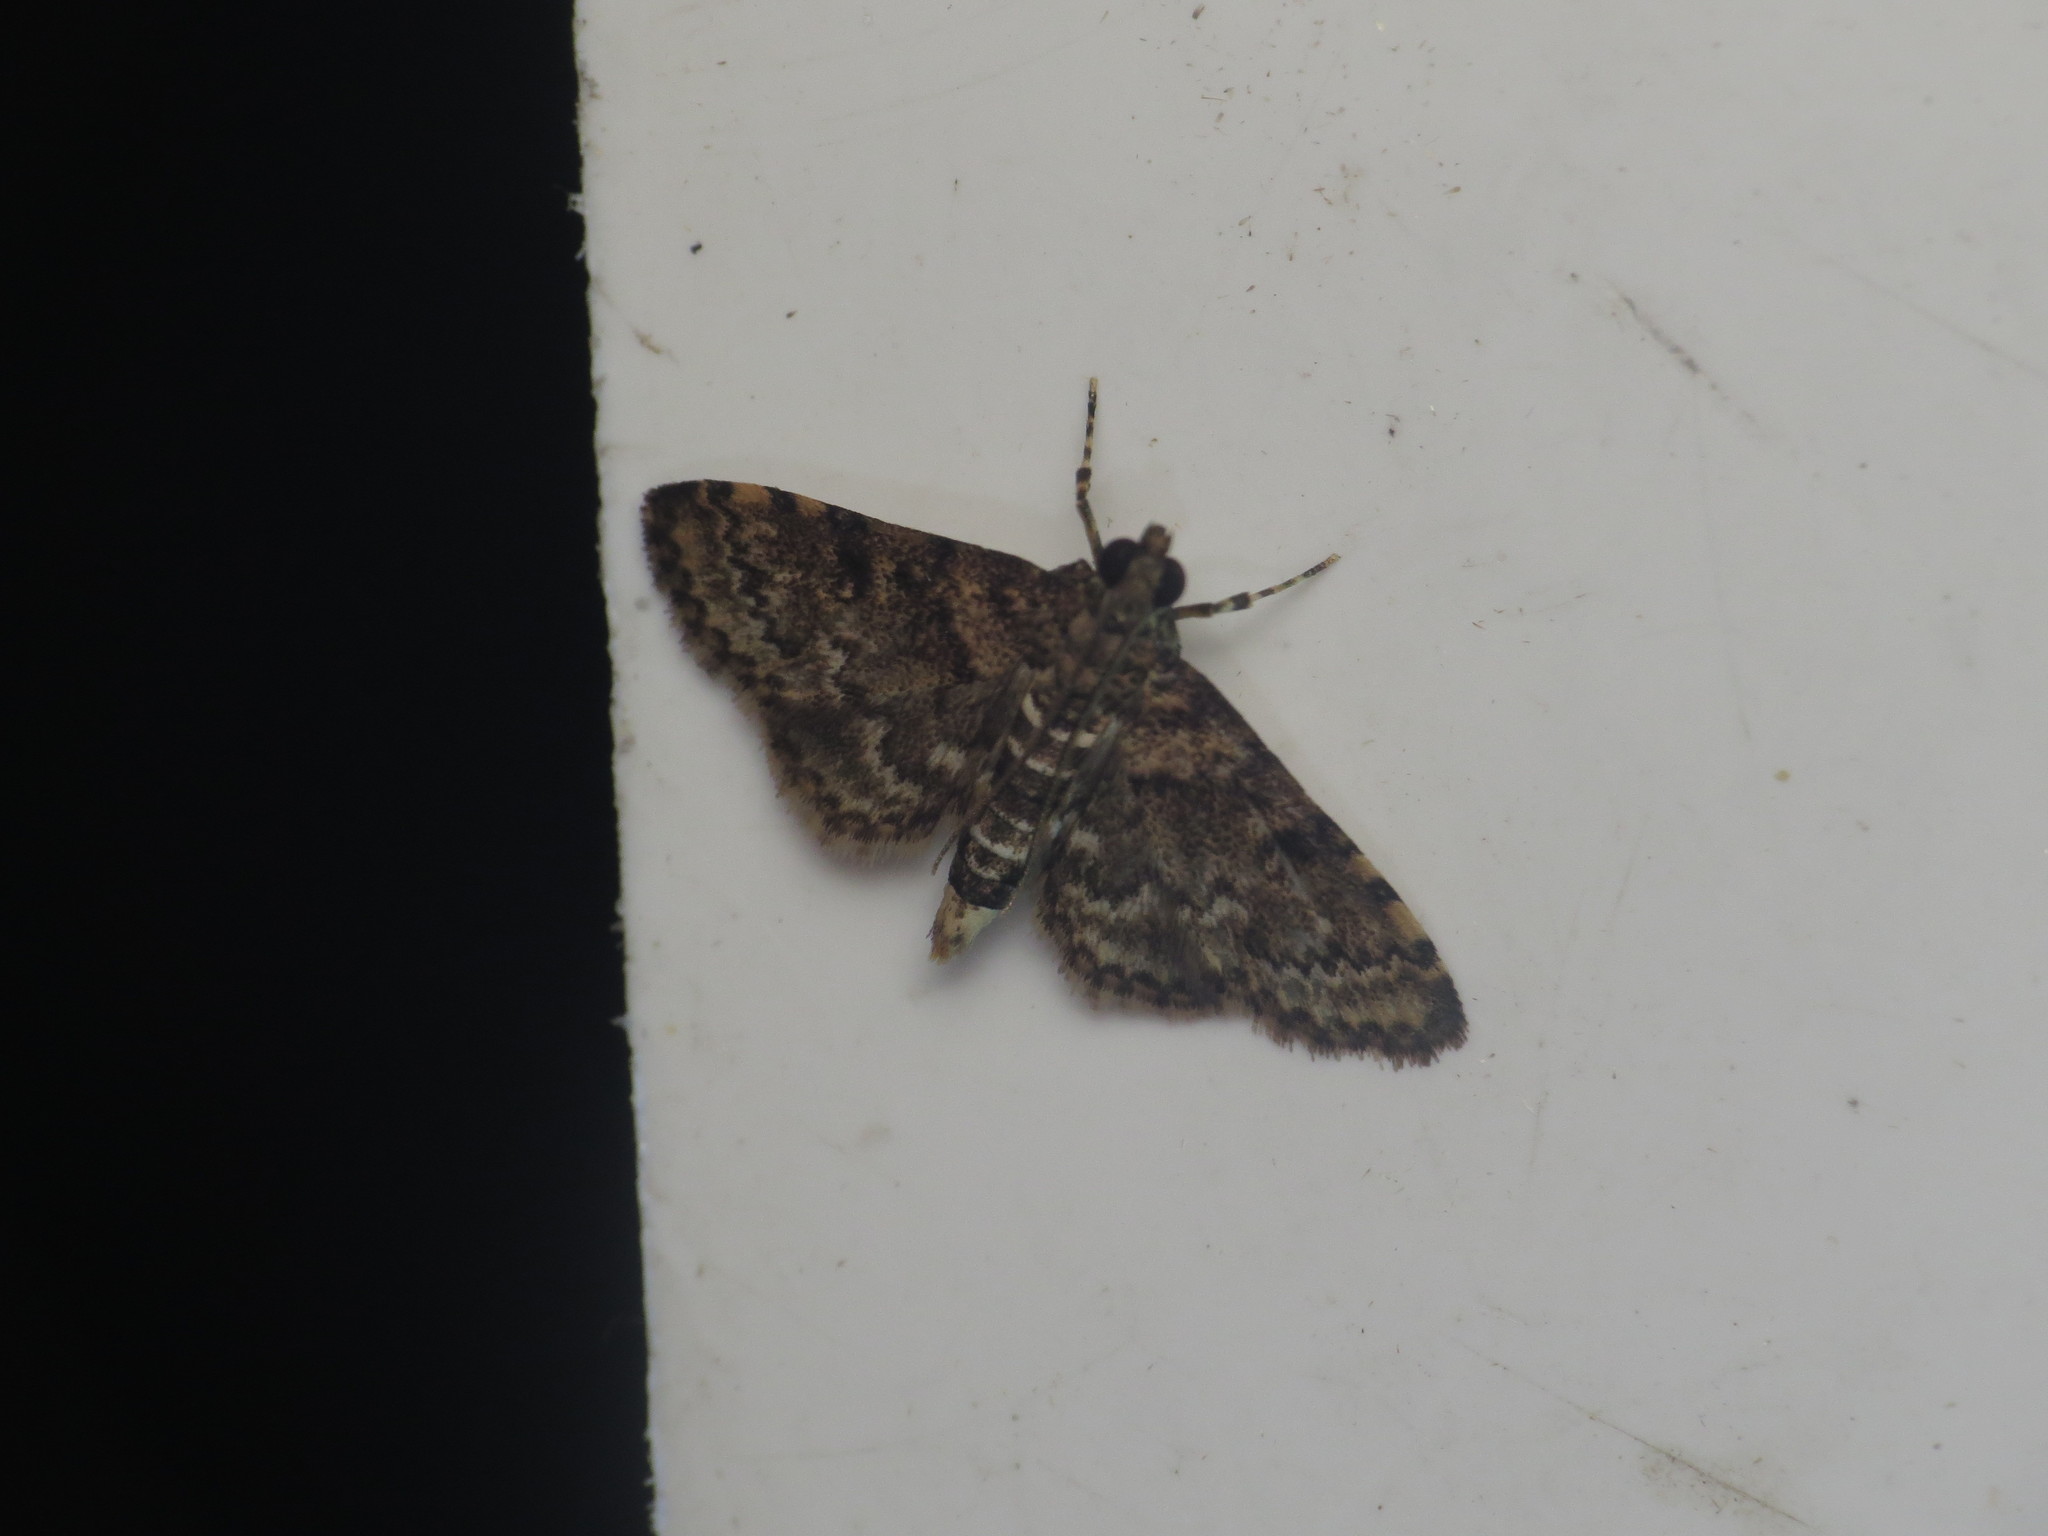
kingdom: Animalia
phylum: Arthropoda
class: Insecta
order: Lepidoptera
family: Crambidae
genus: Metasia
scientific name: Metasia spilocrossa
